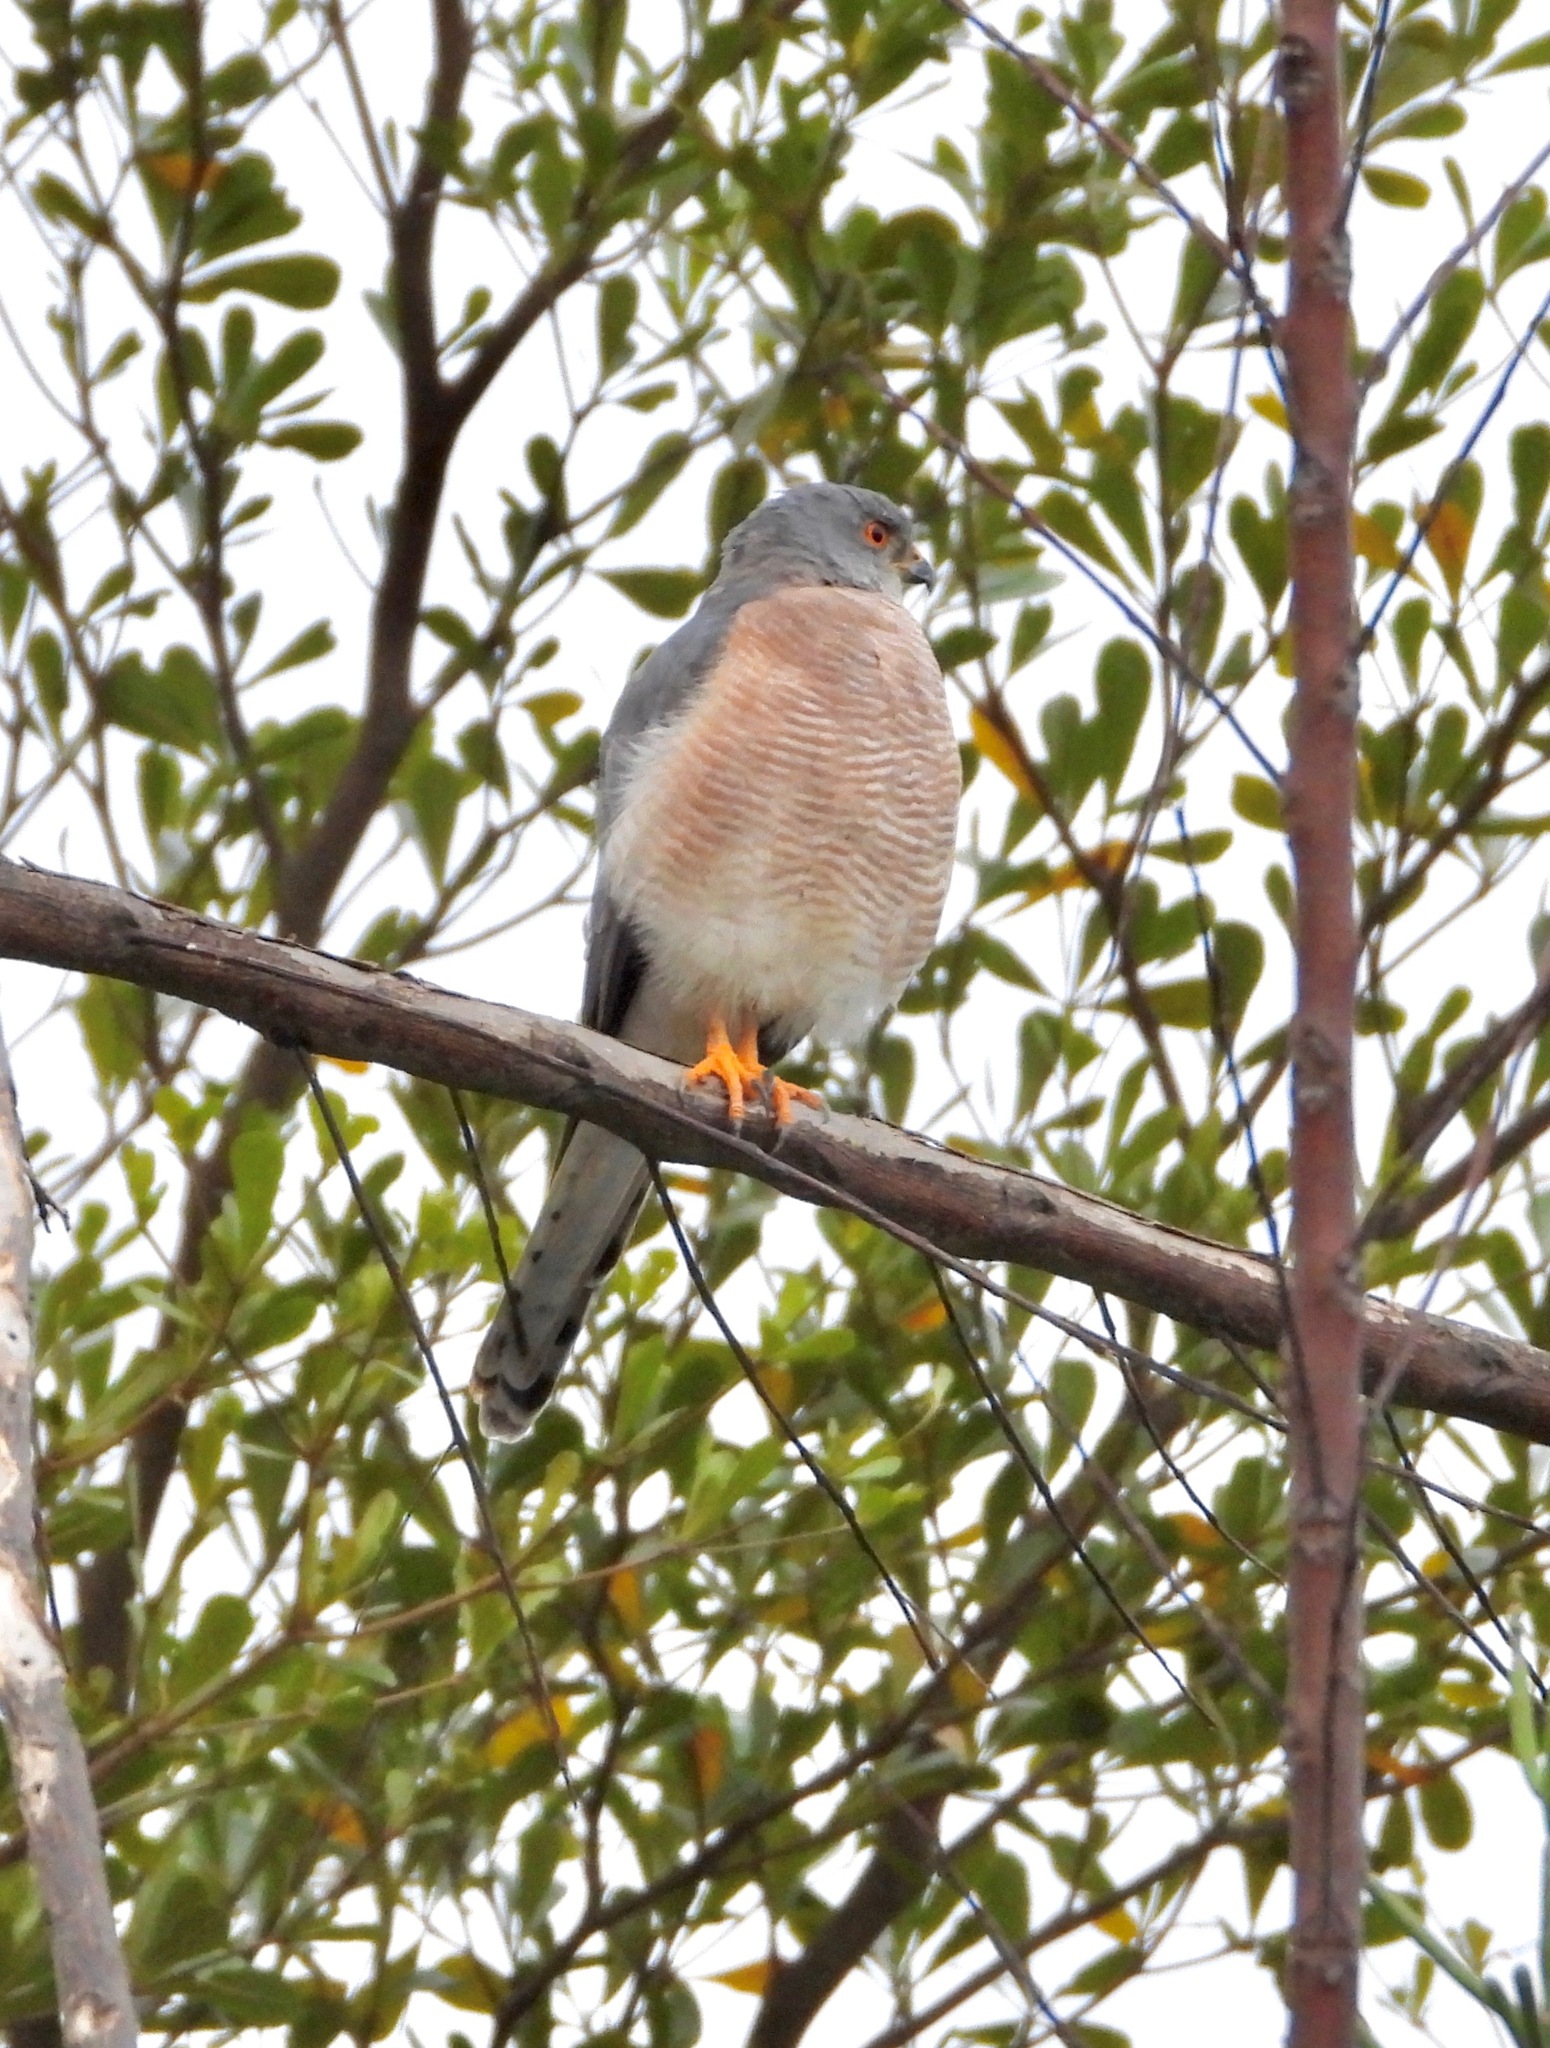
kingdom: Animalia
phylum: Chordata
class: Aves
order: Accipitriformes
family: Accipitridae
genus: Accipiter
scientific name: Accipiter badius
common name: Shikra
